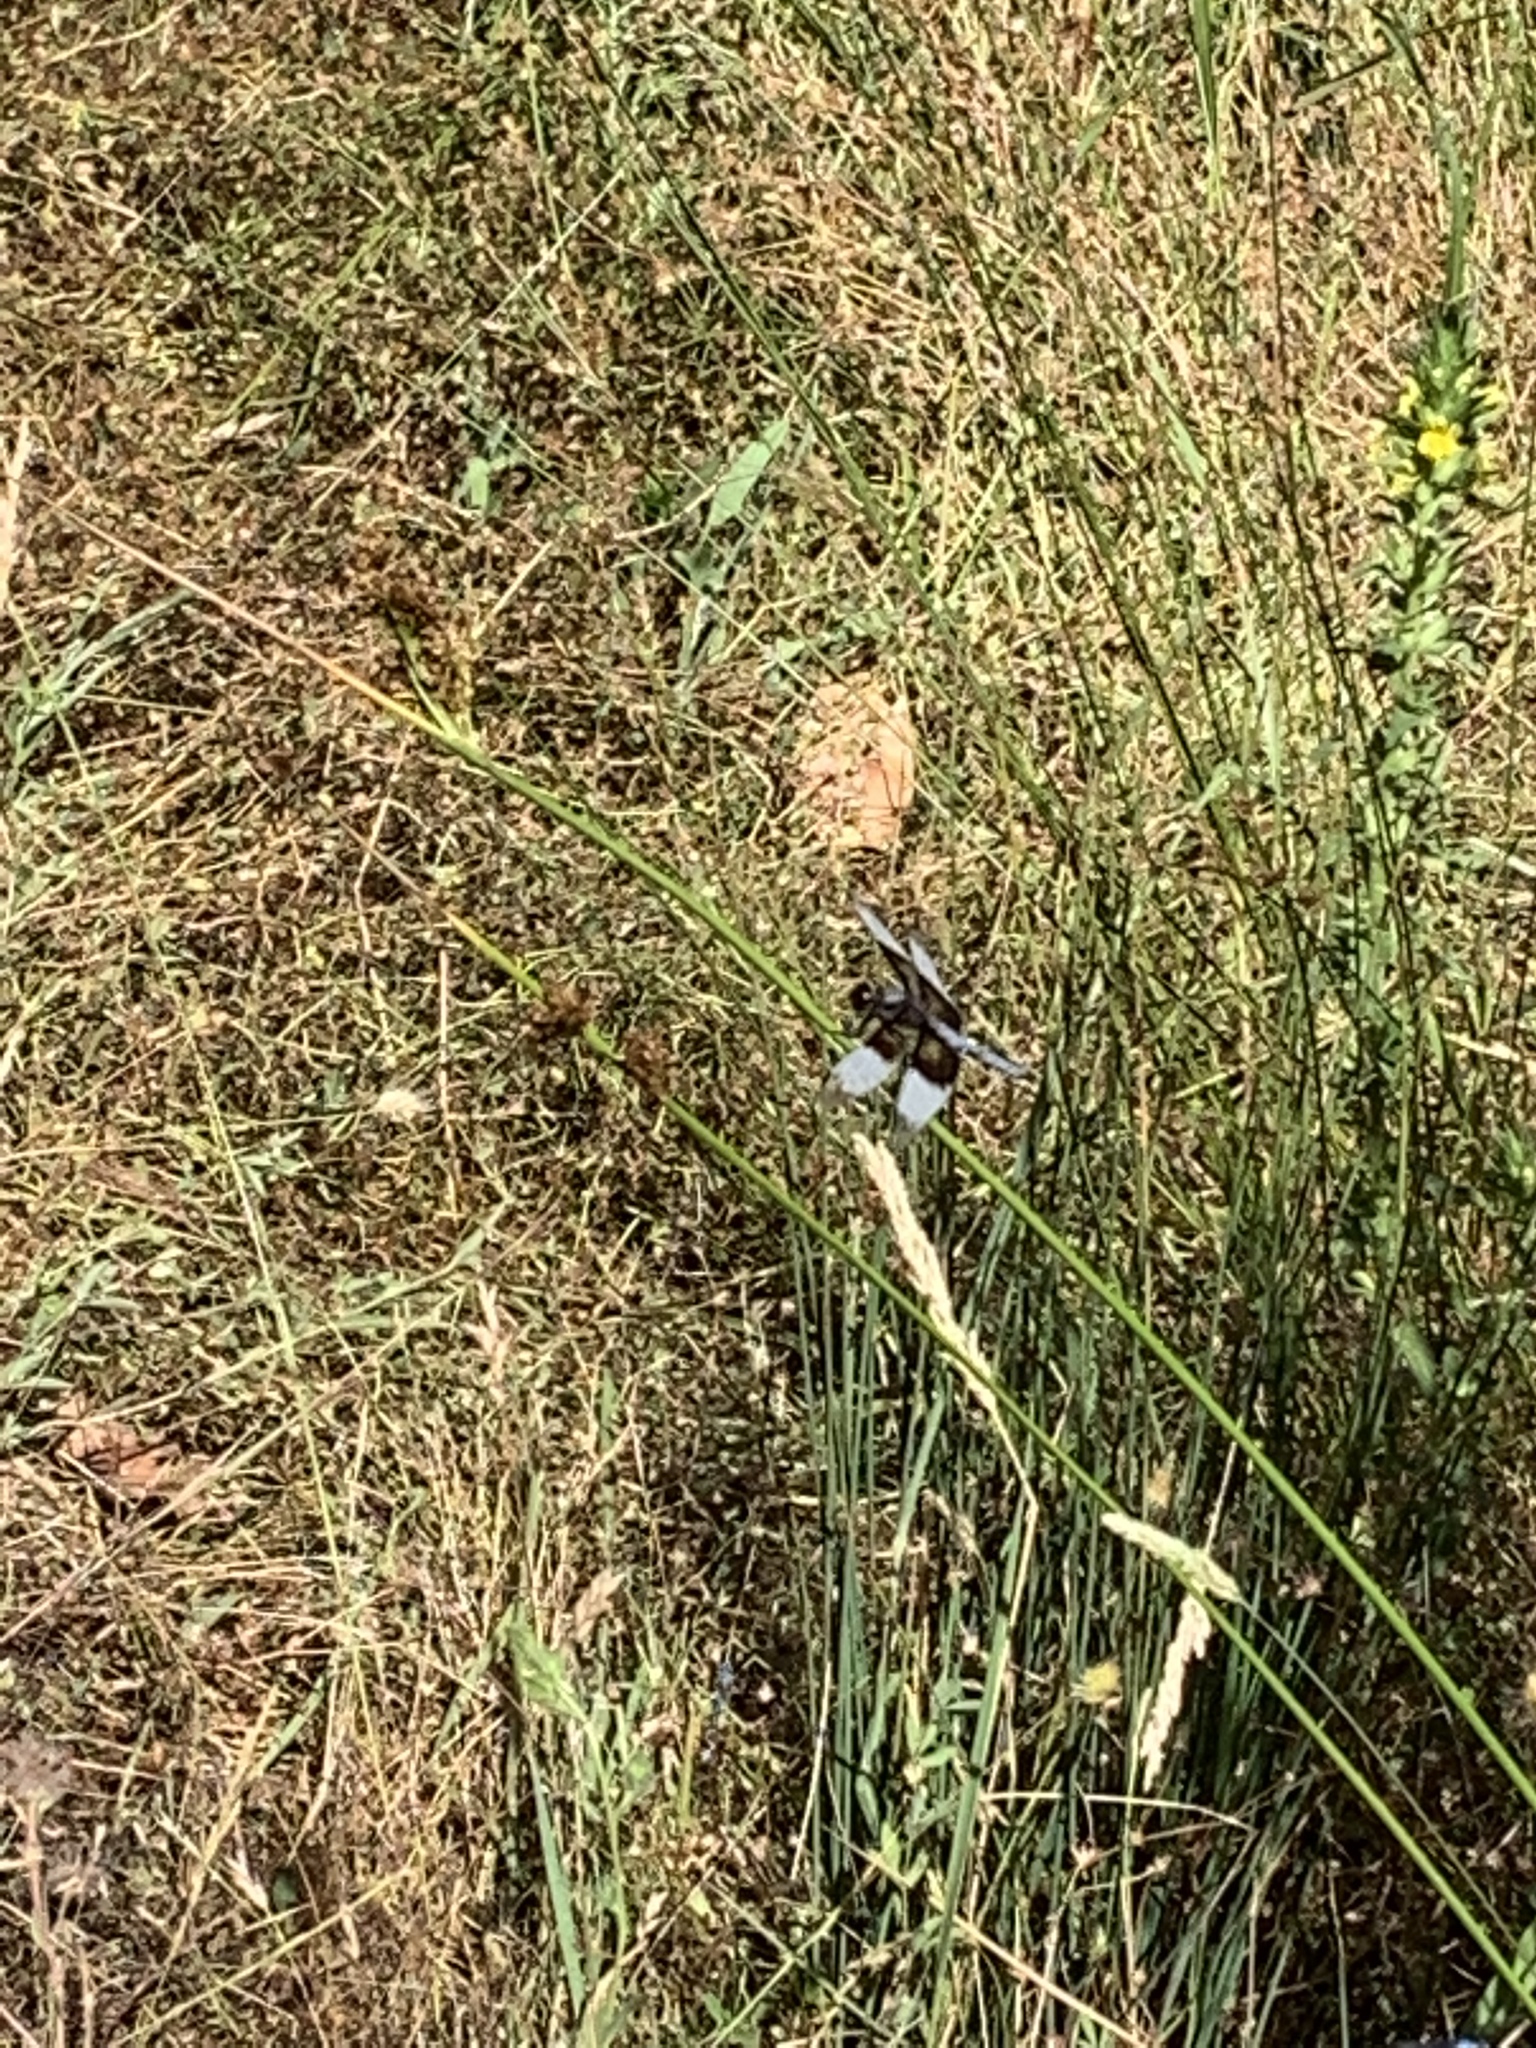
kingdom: Animalia
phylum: Arthropoda
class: Insecta
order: Odonata
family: Libellulidae
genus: Libellula
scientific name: Libellula luctuosa
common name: Widow skimmer
